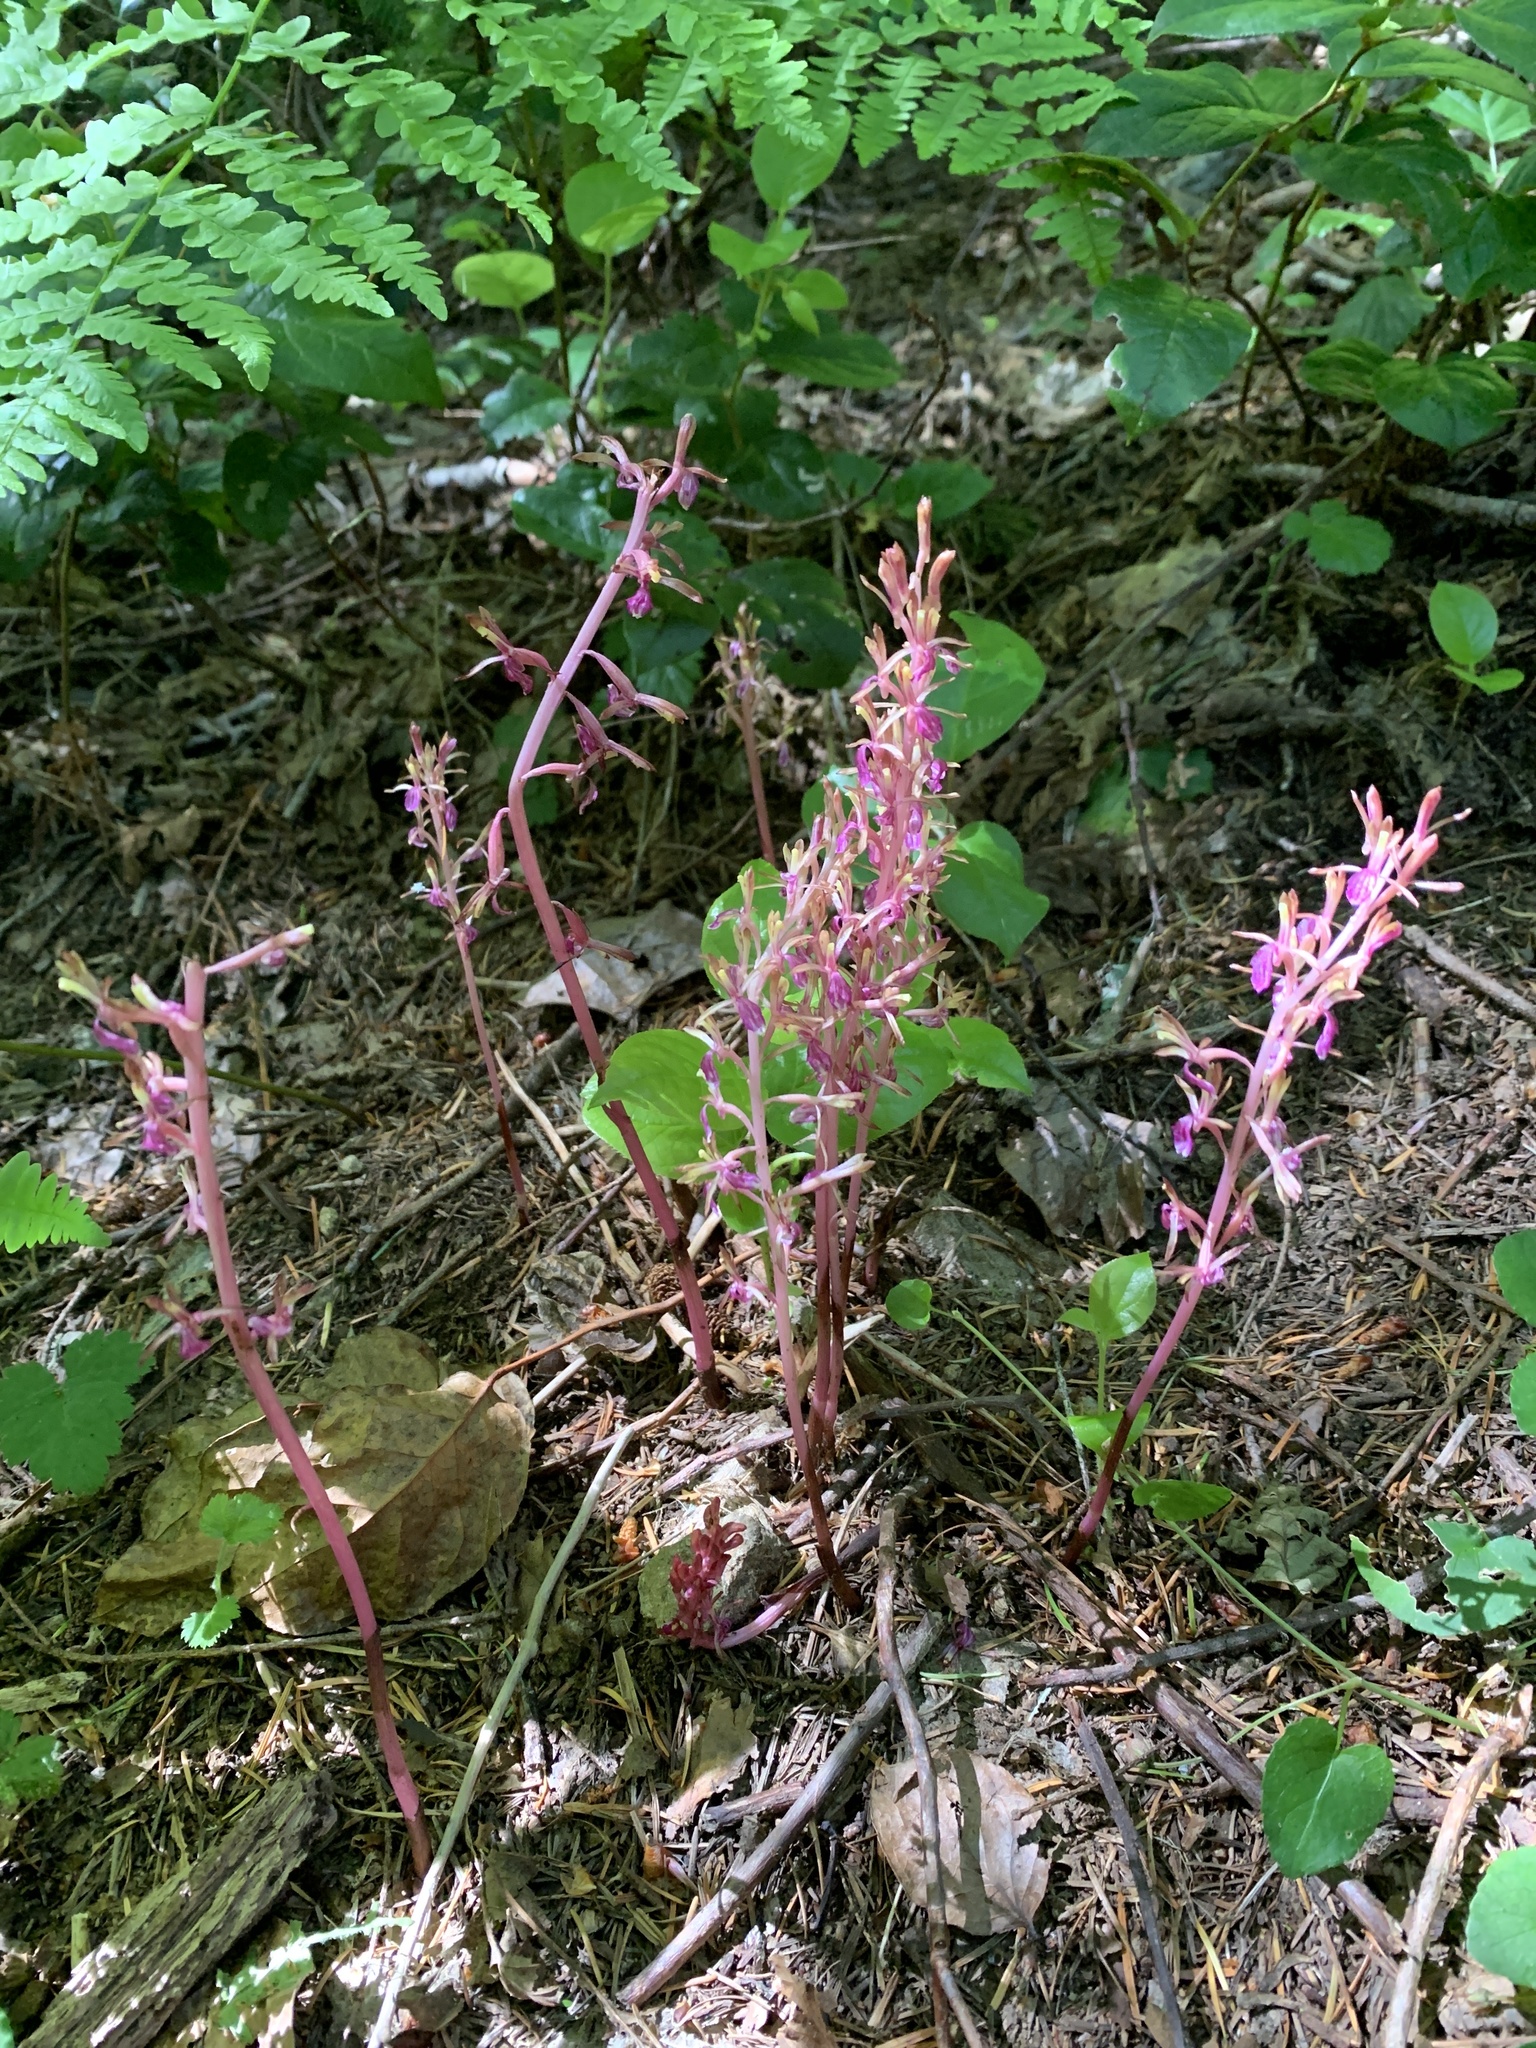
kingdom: Plantae
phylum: Tracheophyta
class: Liliopsida
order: Asparagales
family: Orchidaceae
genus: Corallorhiza
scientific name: Corallorhiza mertensiana
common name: Pacific coralroot
